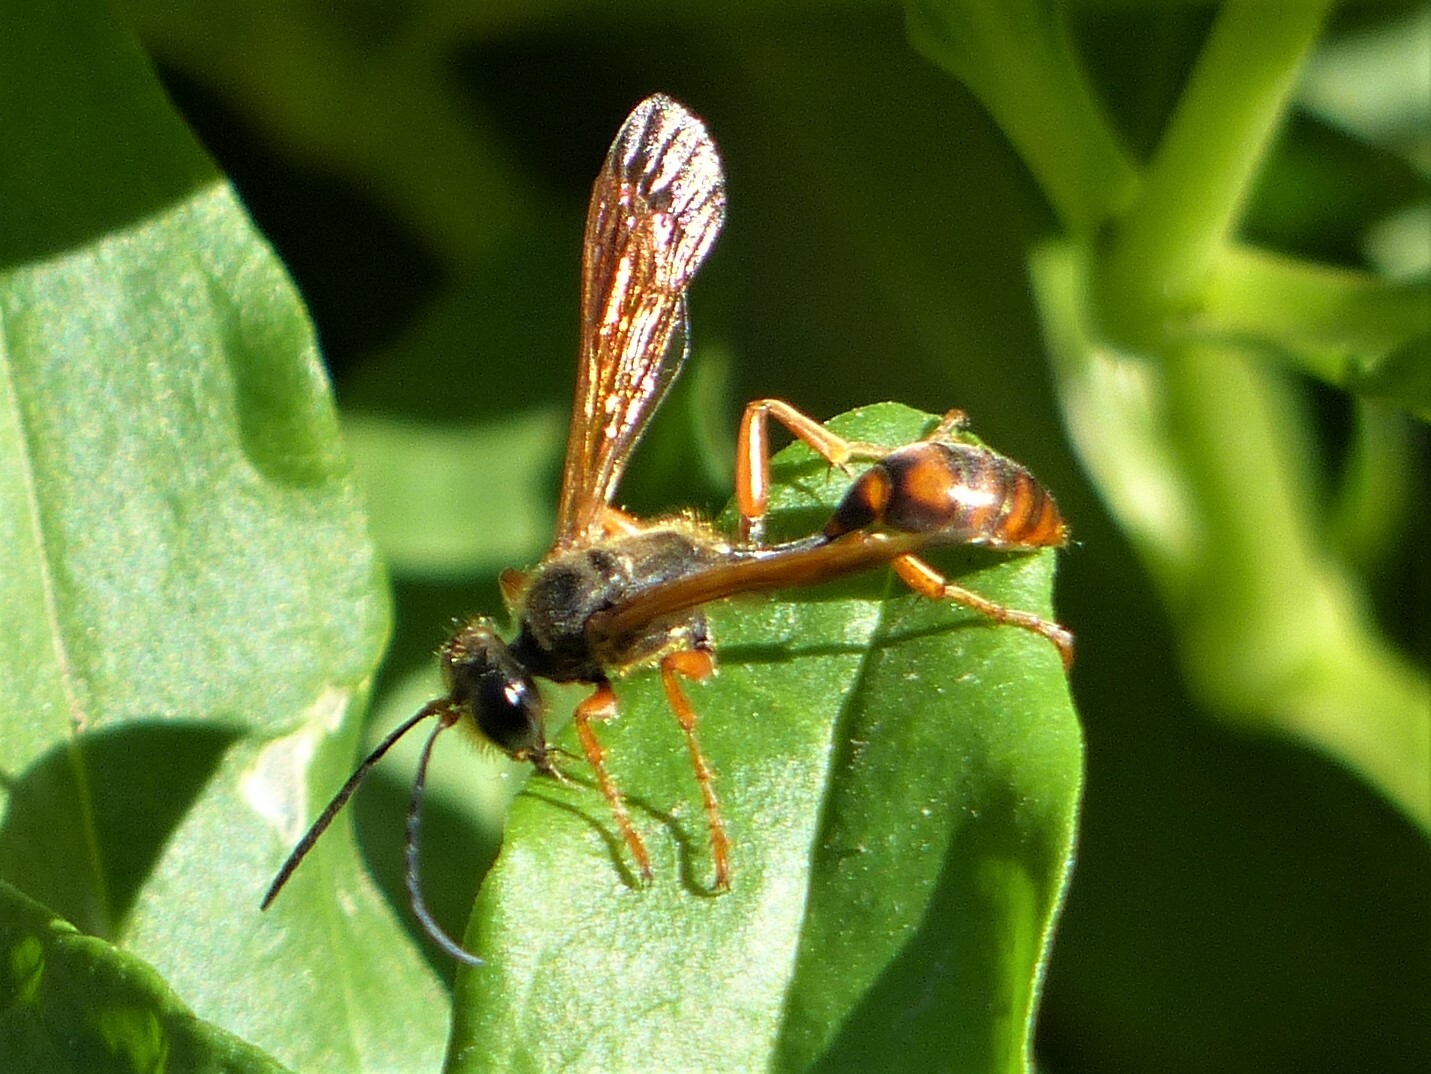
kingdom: Animalia
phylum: Arthropoda
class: Insecta
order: Hymenoptera
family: Sphecidae
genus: Isodontia
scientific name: Isodontia elegans
